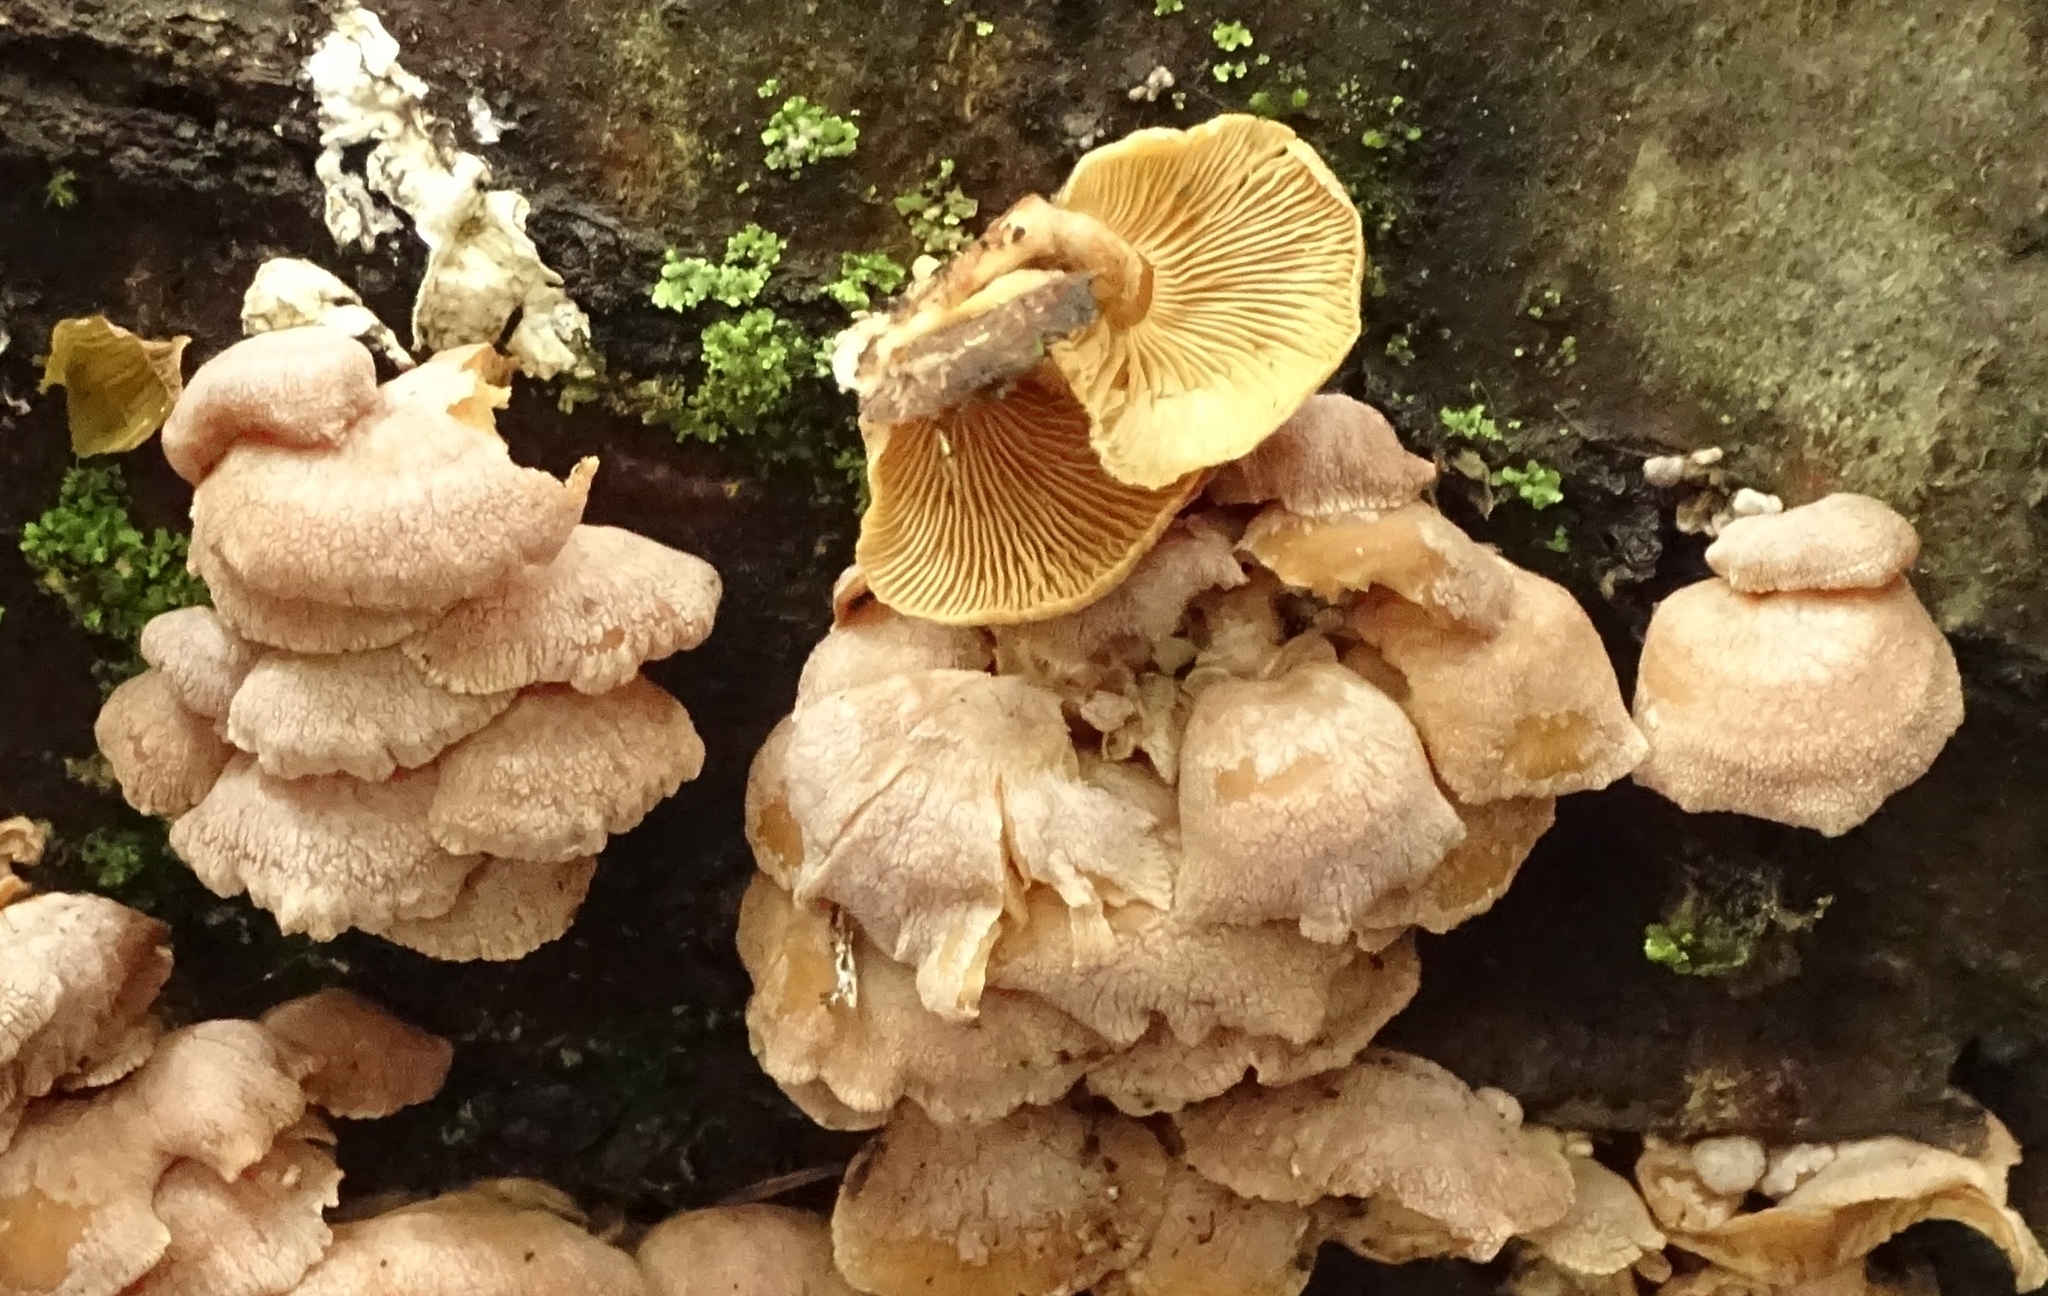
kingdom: Fungi
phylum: Basidiomycota
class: Agaricomycetes
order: Agaricales
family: Mycenaceae
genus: Panellus
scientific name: Panellus stipticus
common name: Bitter oysterling
